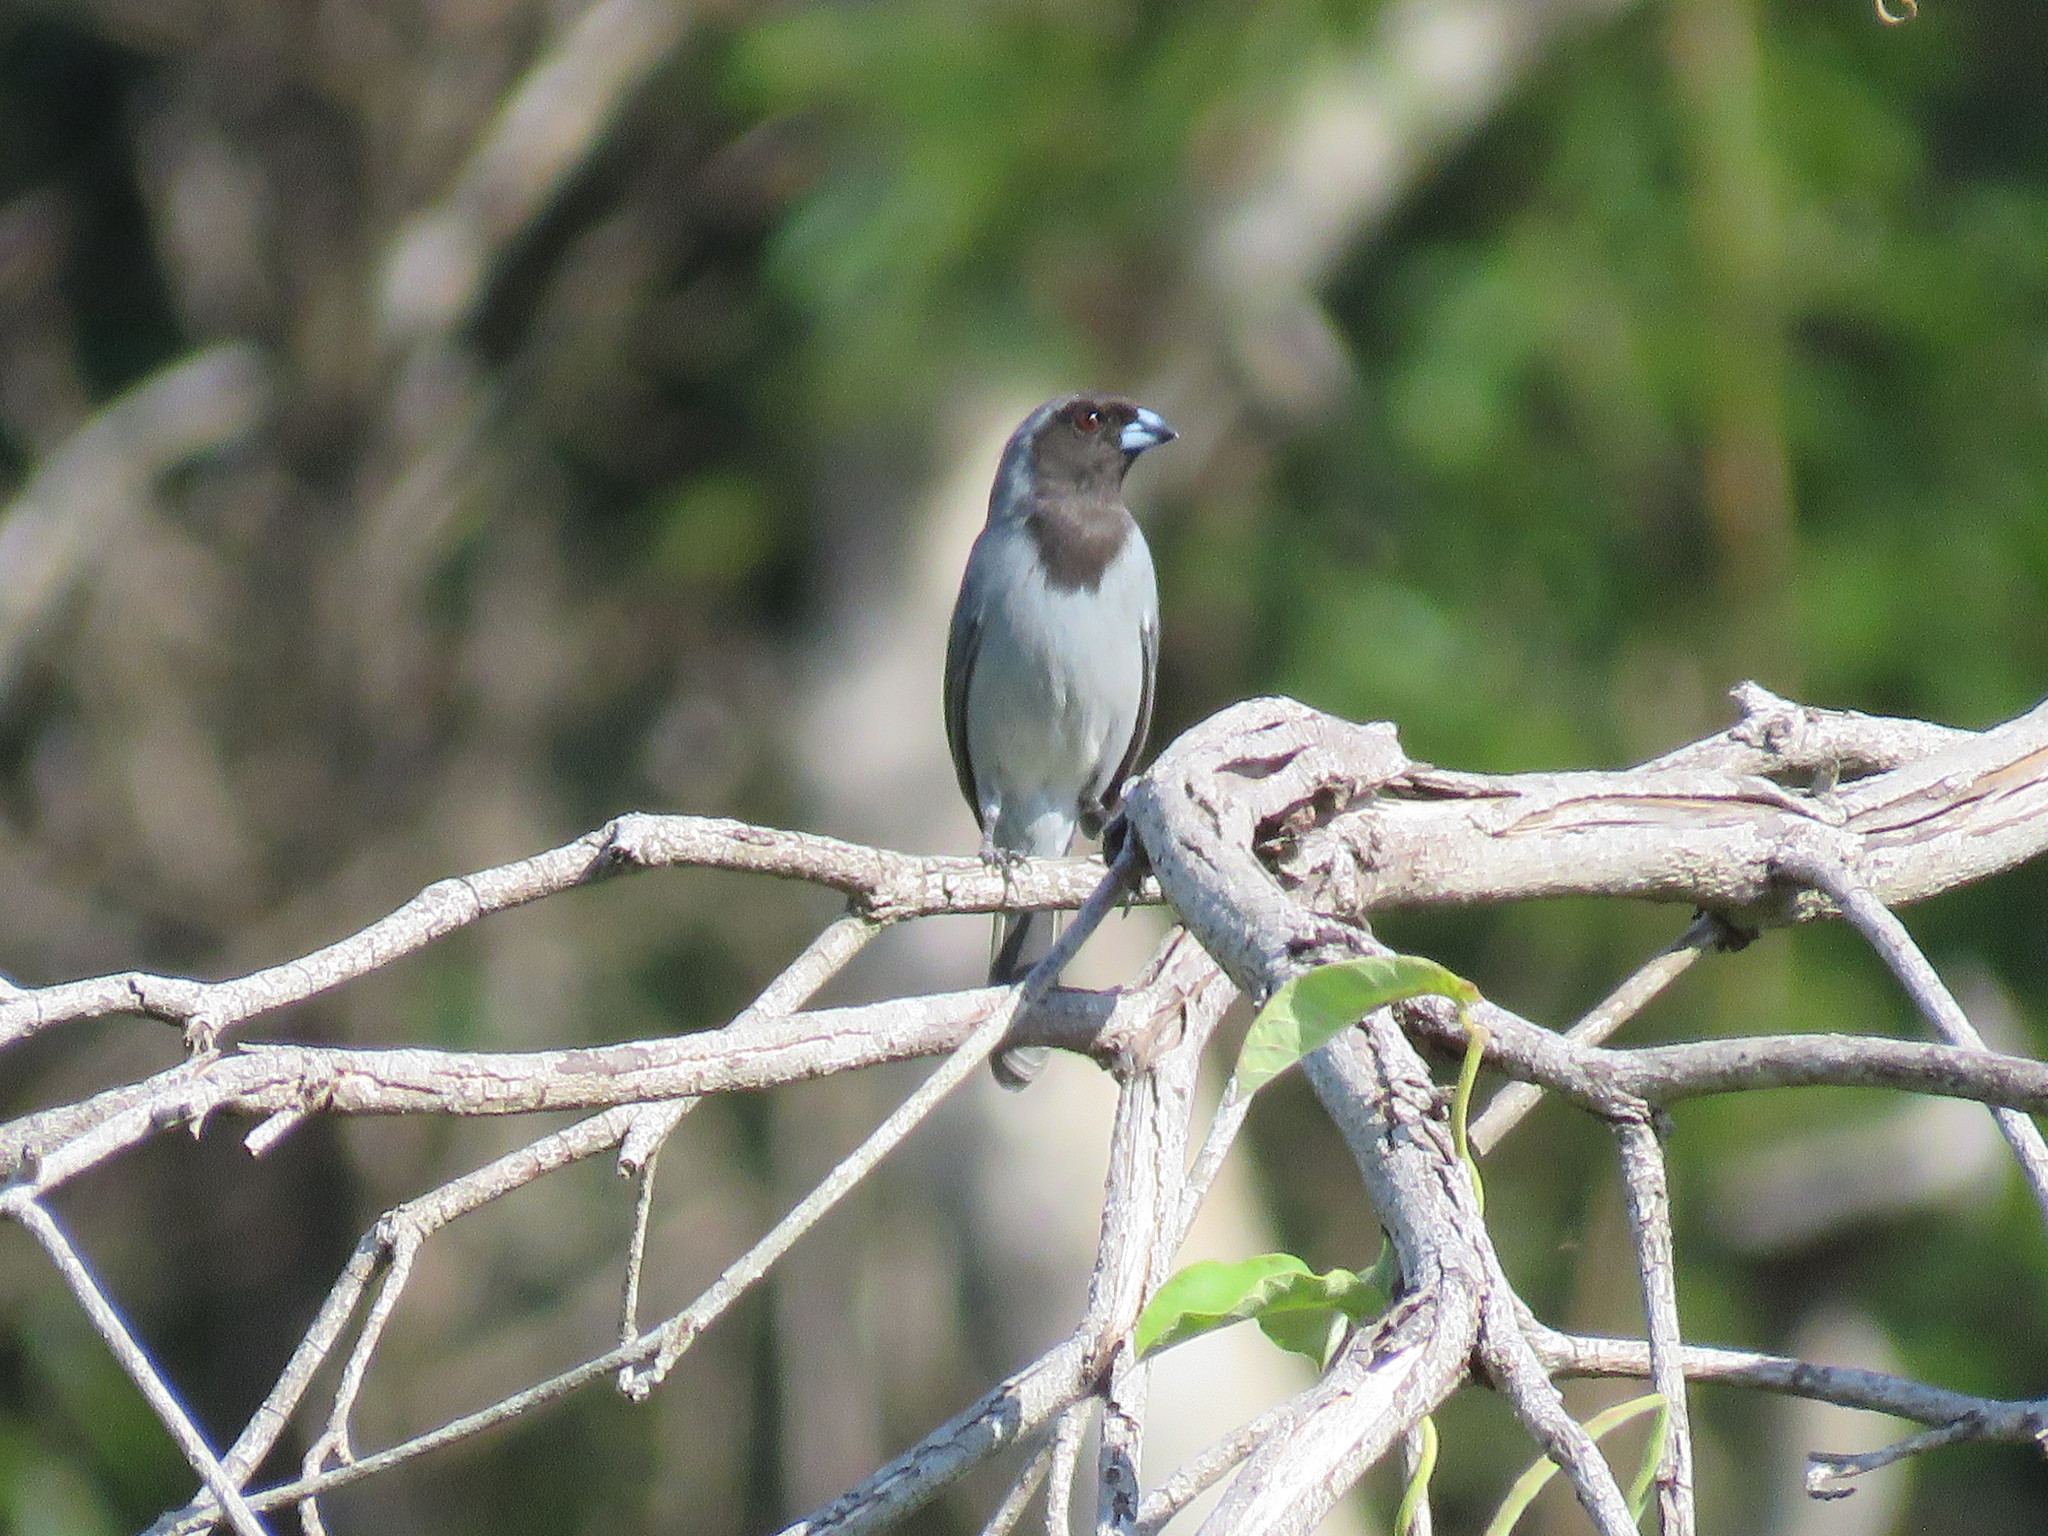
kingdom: Animalia
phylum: Chordata
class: Aves
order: Passeriformes
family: Thraupidae
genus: Schistochlamys
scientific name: Schistochlamys melanopis
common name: Black-faced tanager
